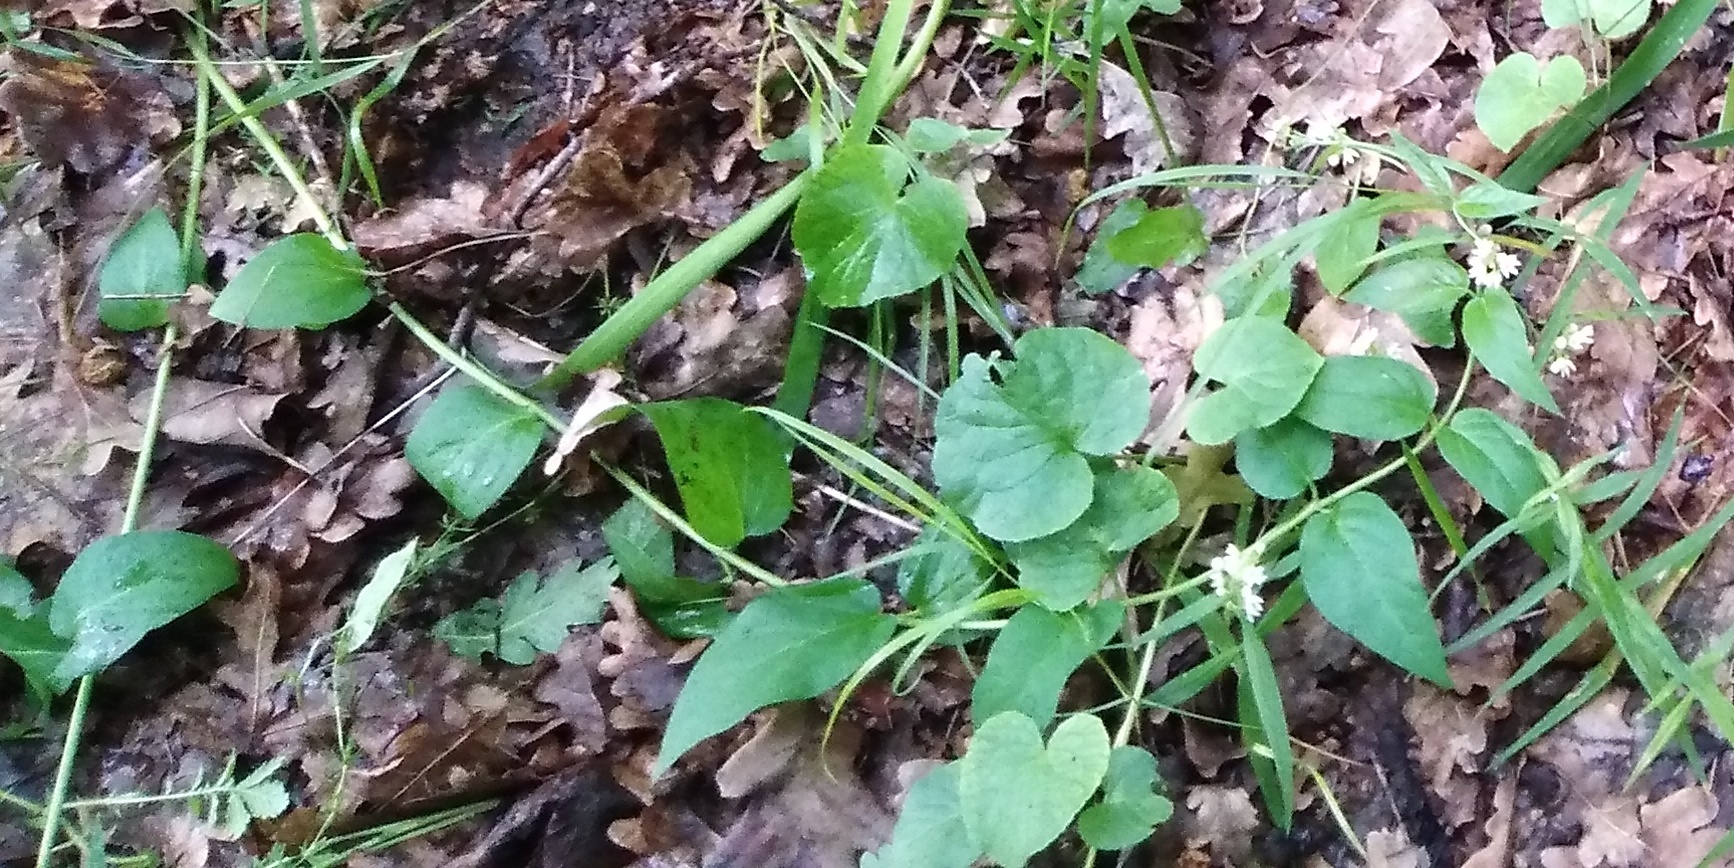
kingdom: Plantae
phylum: Tracheophyta
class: Magnoliopsida
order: Gentianales
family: Apocynaceae
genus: Vincetoxicum
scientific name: Vincetoxicum hirundinaria
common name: White swallowwort
